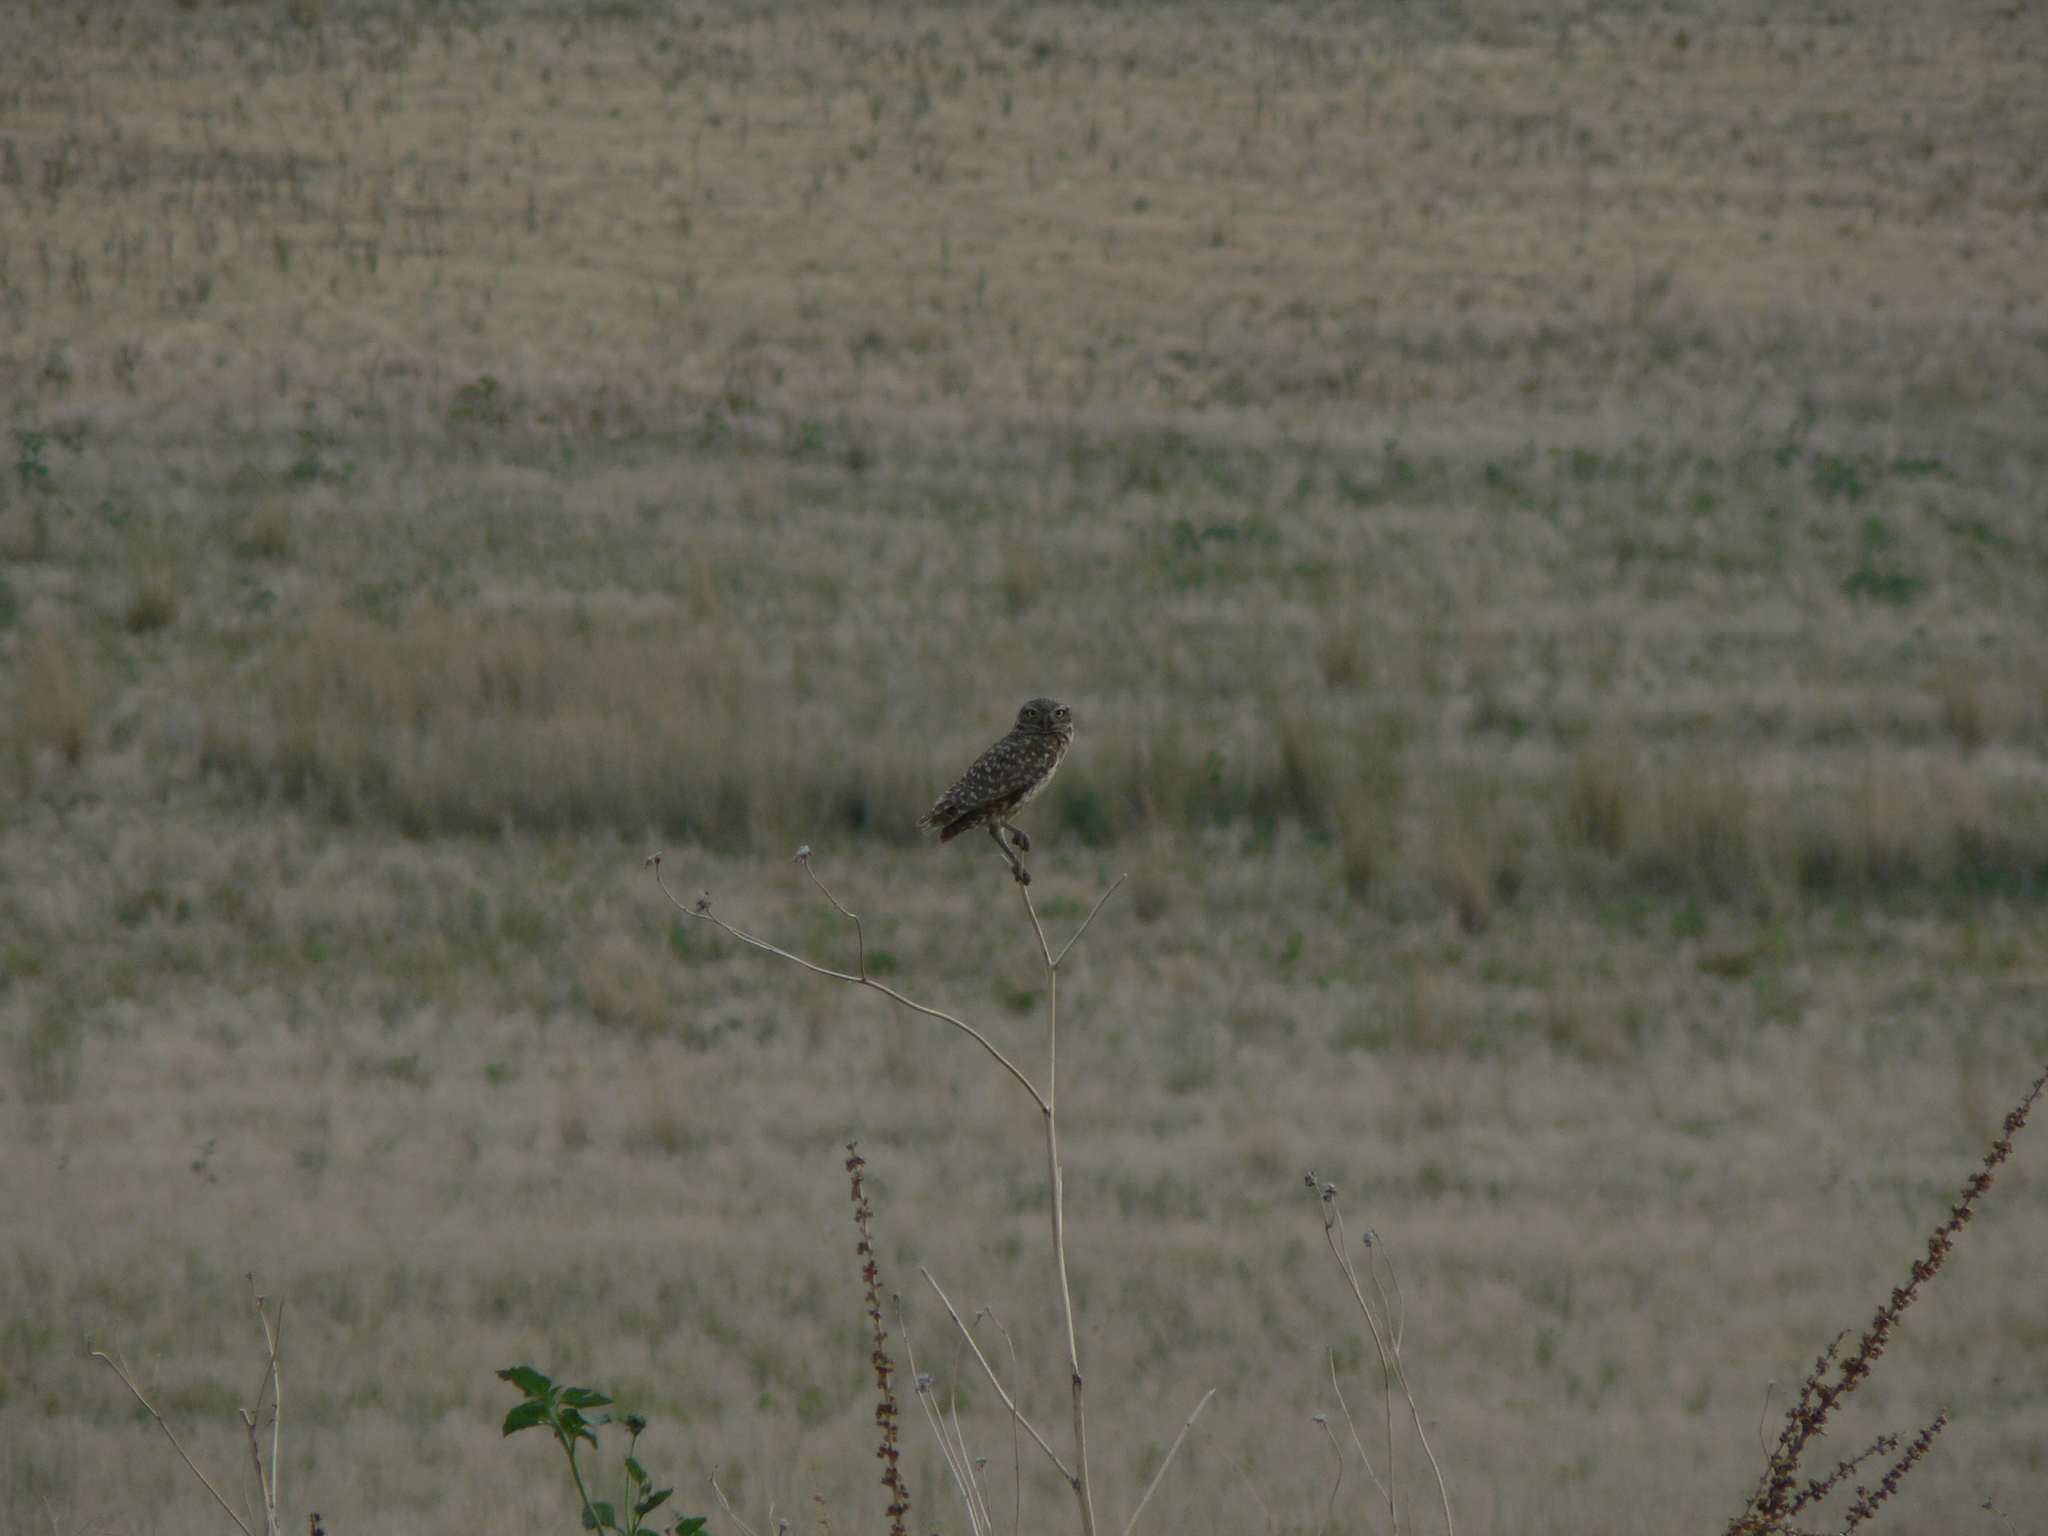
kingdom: Animalia
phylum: Chordata
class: Aves
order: Strigiformes
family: Strigidae
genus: Athene
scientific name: Athene cunicularia
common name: Burrowing owl
